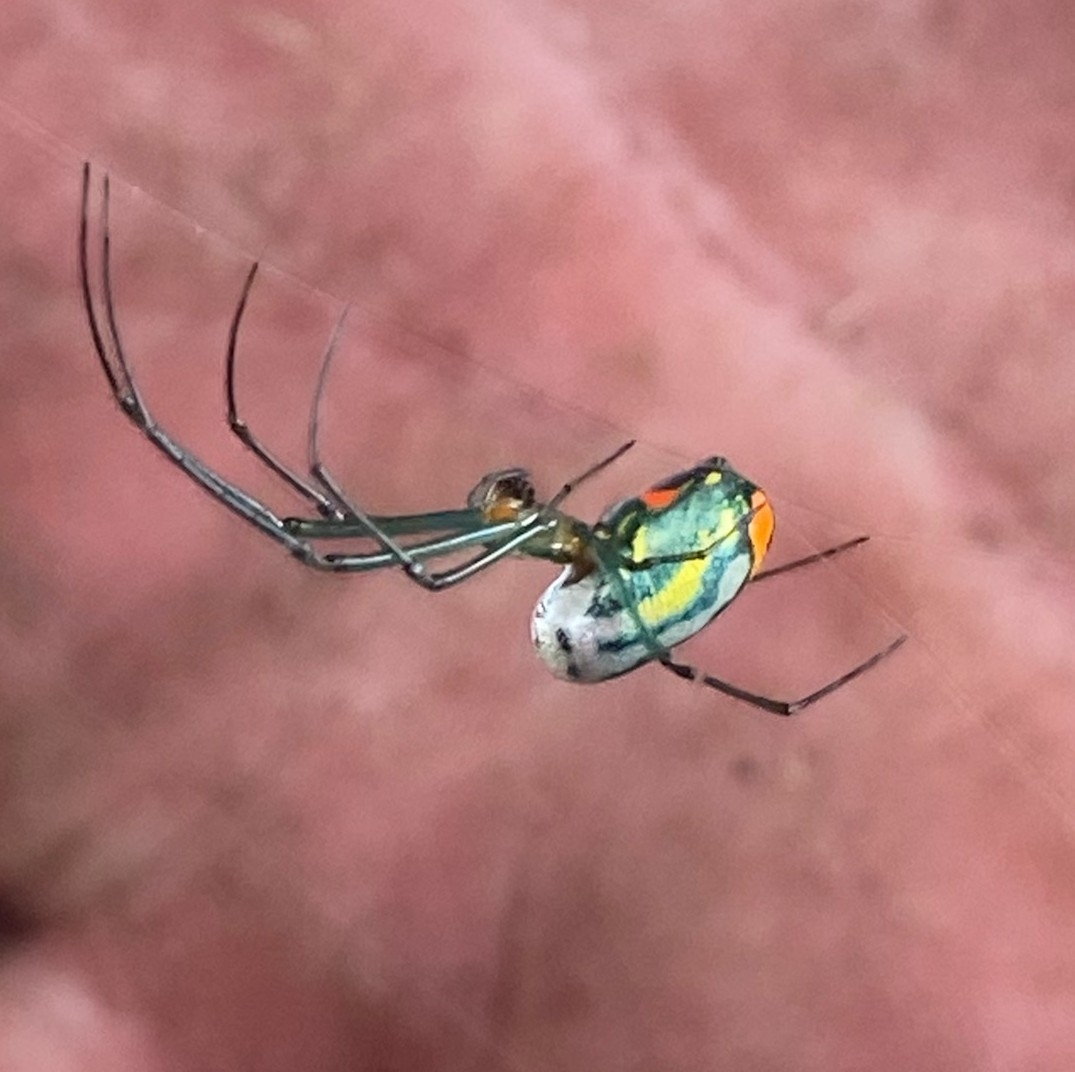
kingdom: Animalia
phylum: Arthropoda
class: Arachnida
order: Araneae
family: Tetragnathidae
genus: Leucauge
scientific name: Leucauge argyrobapta
